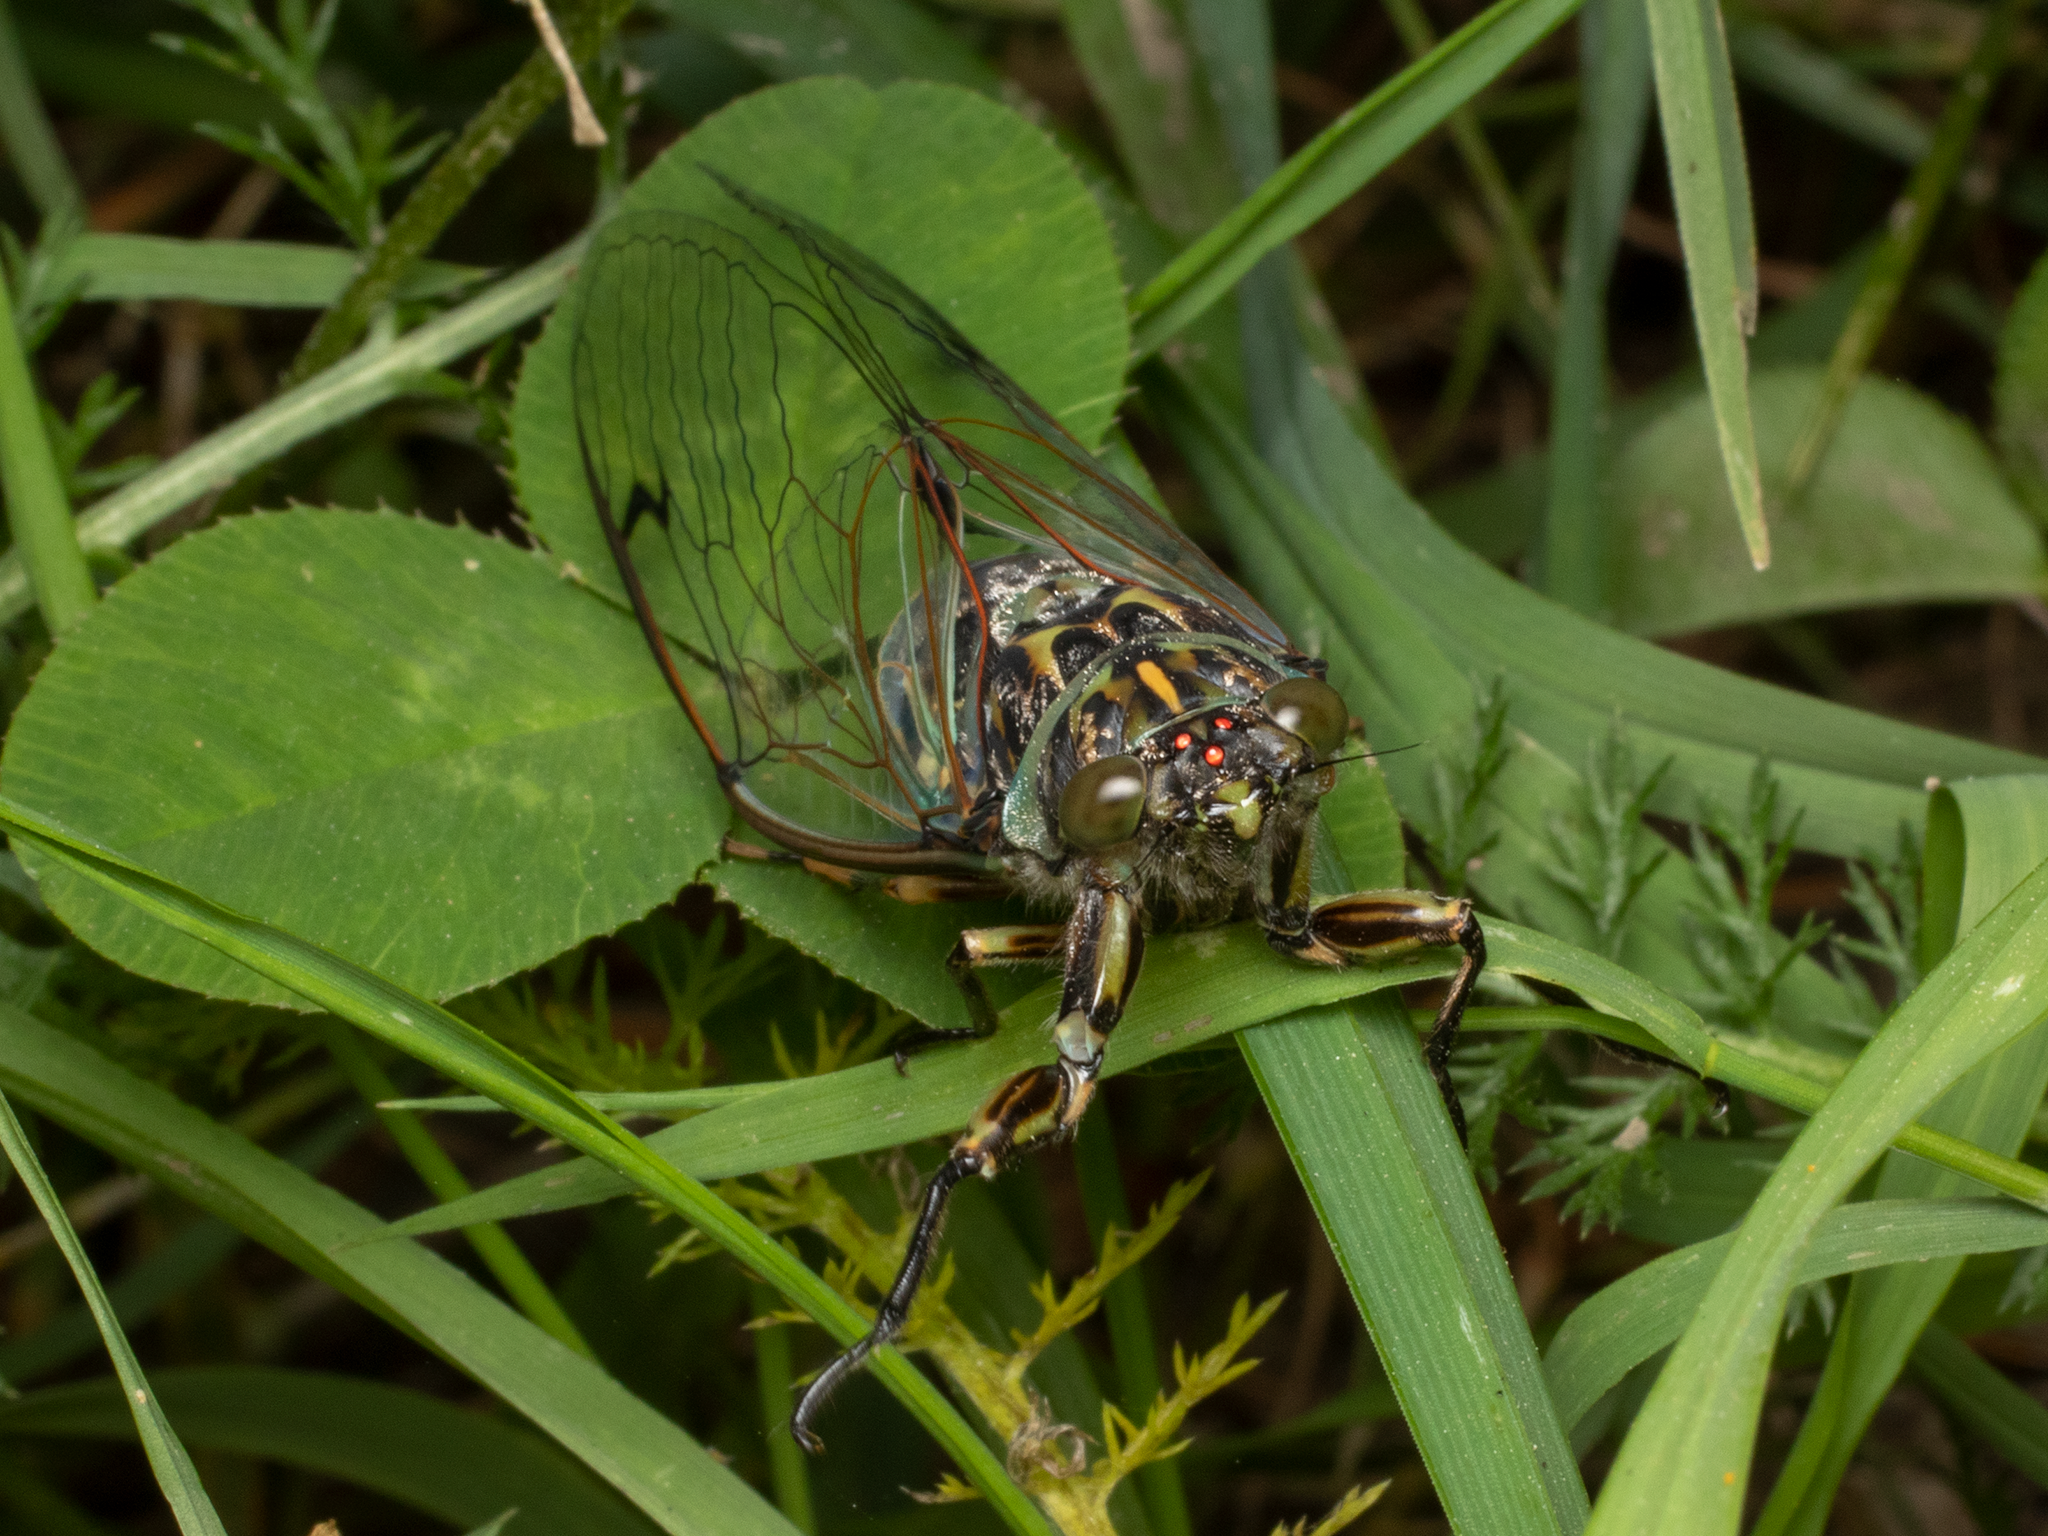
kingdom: Animalia
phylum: Arthropoda
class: Insecta
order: Hemiptera
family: Cicadidae
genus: Amphipsalta
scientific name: Amphipsalta zelandica
